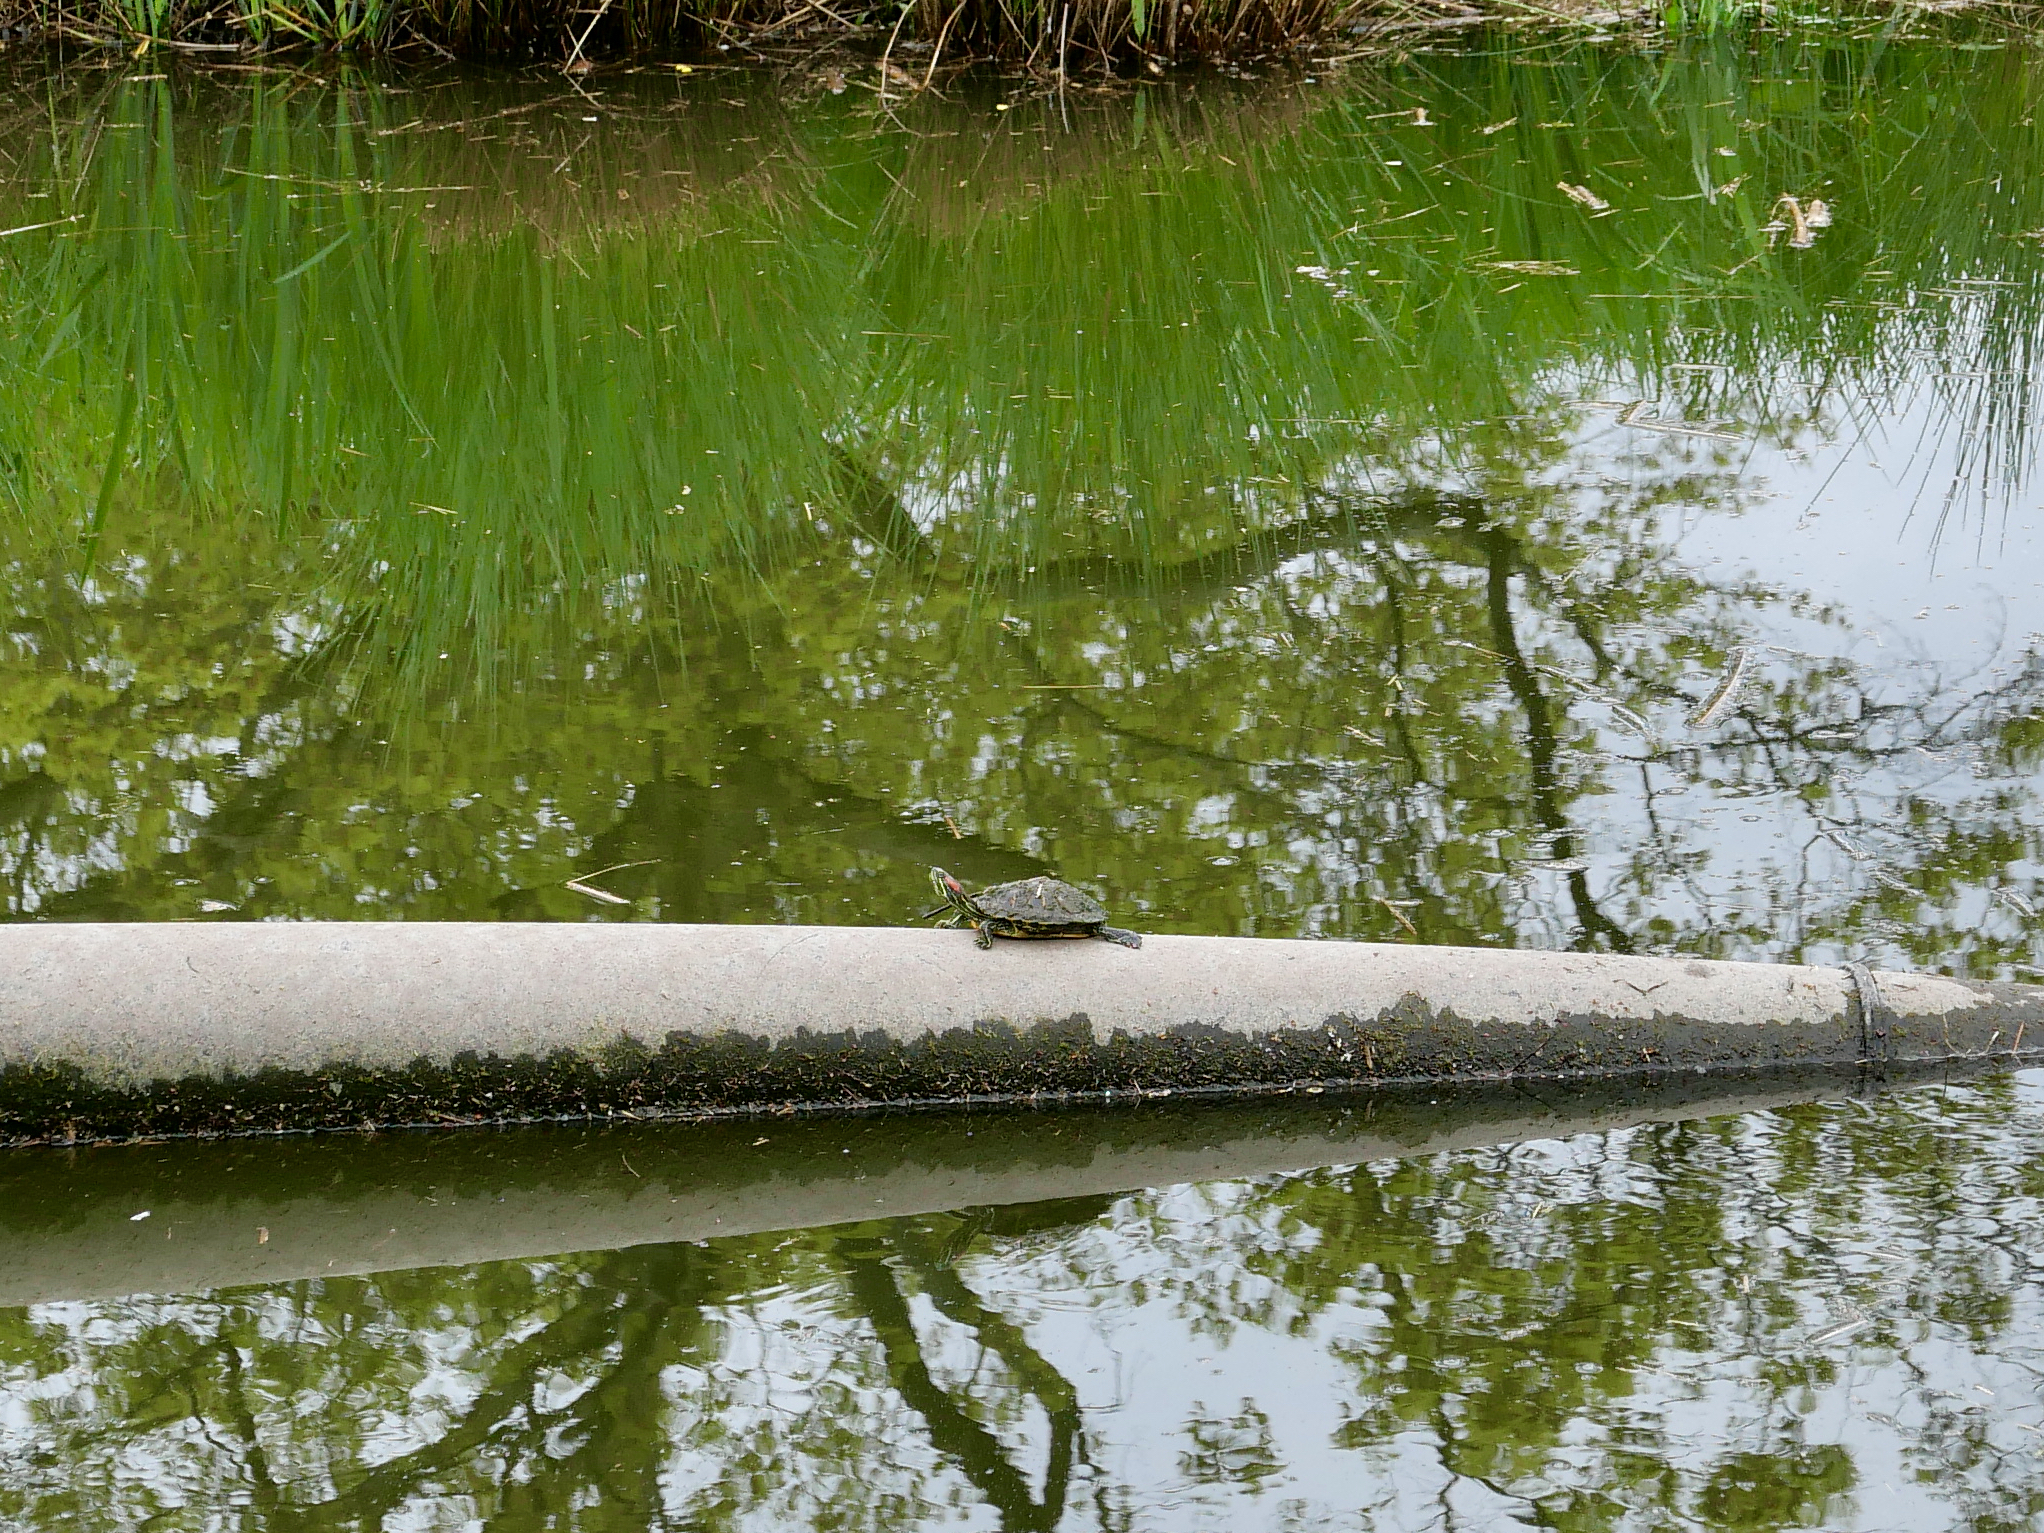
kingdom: Animalia
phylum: Chordata
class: Testudines
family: Emydidae
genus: Trachemys
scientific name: Trachemys scripta
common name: Slider
